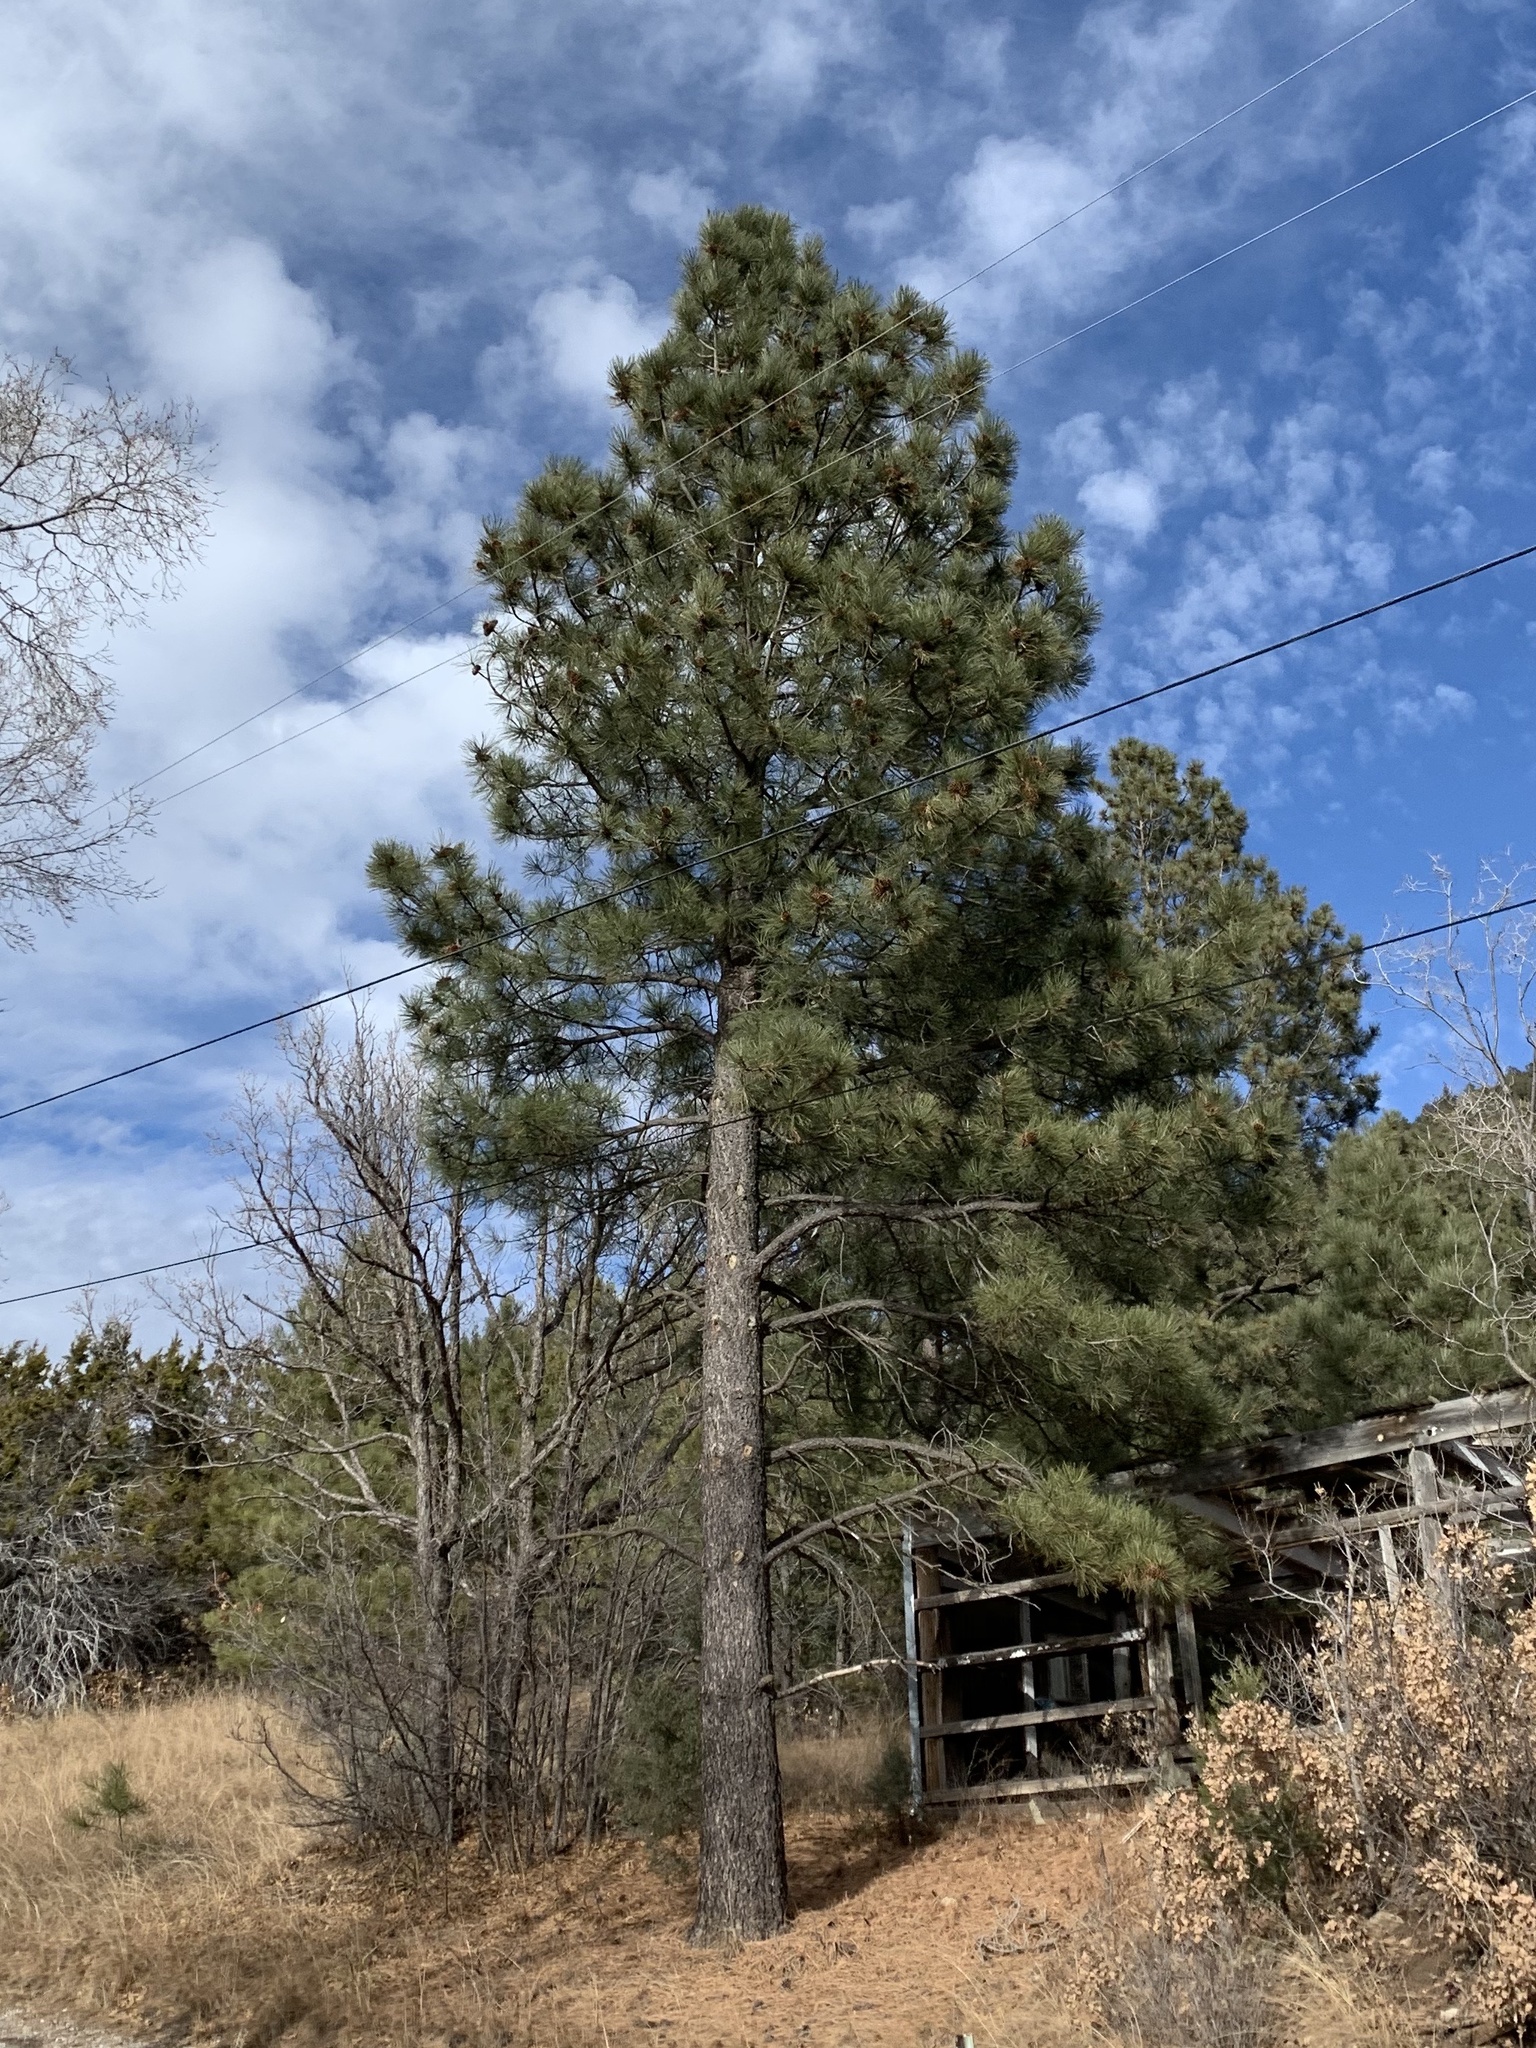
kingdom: Plantae
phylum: Tracheophyta
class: Pinopsida
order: Pinales
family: Pinaceae
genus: Pinus
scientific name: Pinus ponderosa
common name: Western yellow-pine
